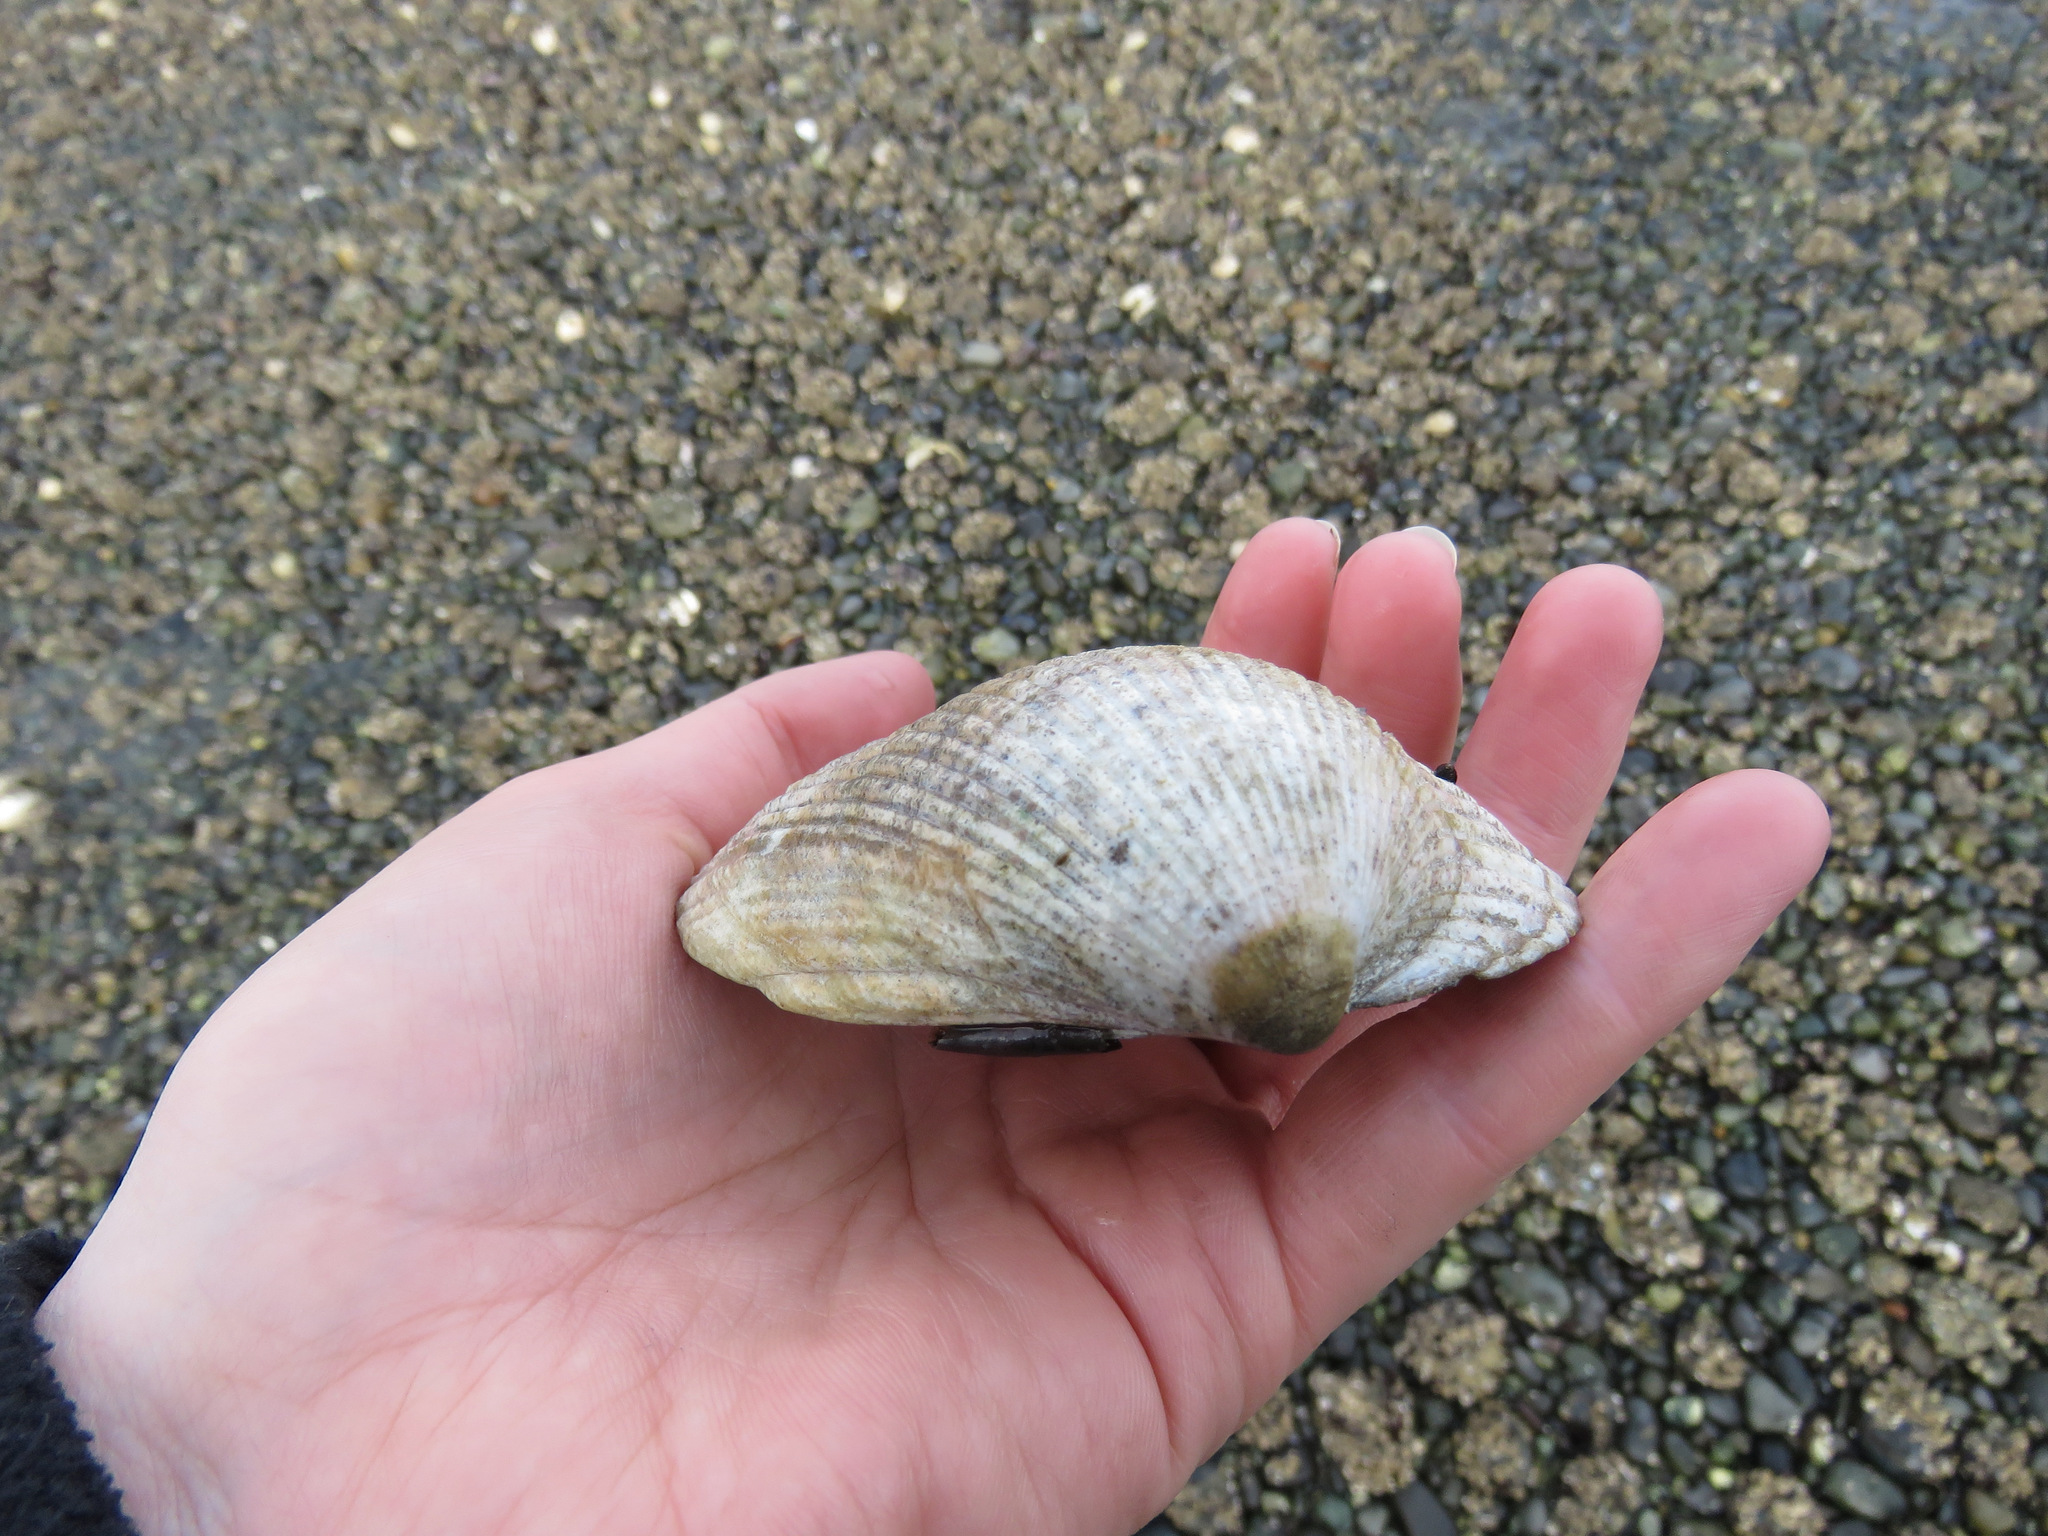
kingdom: Animalia
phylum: Mollusca
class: Bivalvia
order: Cardiida
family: Cardiidae
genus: Clinocardium
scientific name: Clinocardium nuttallii
